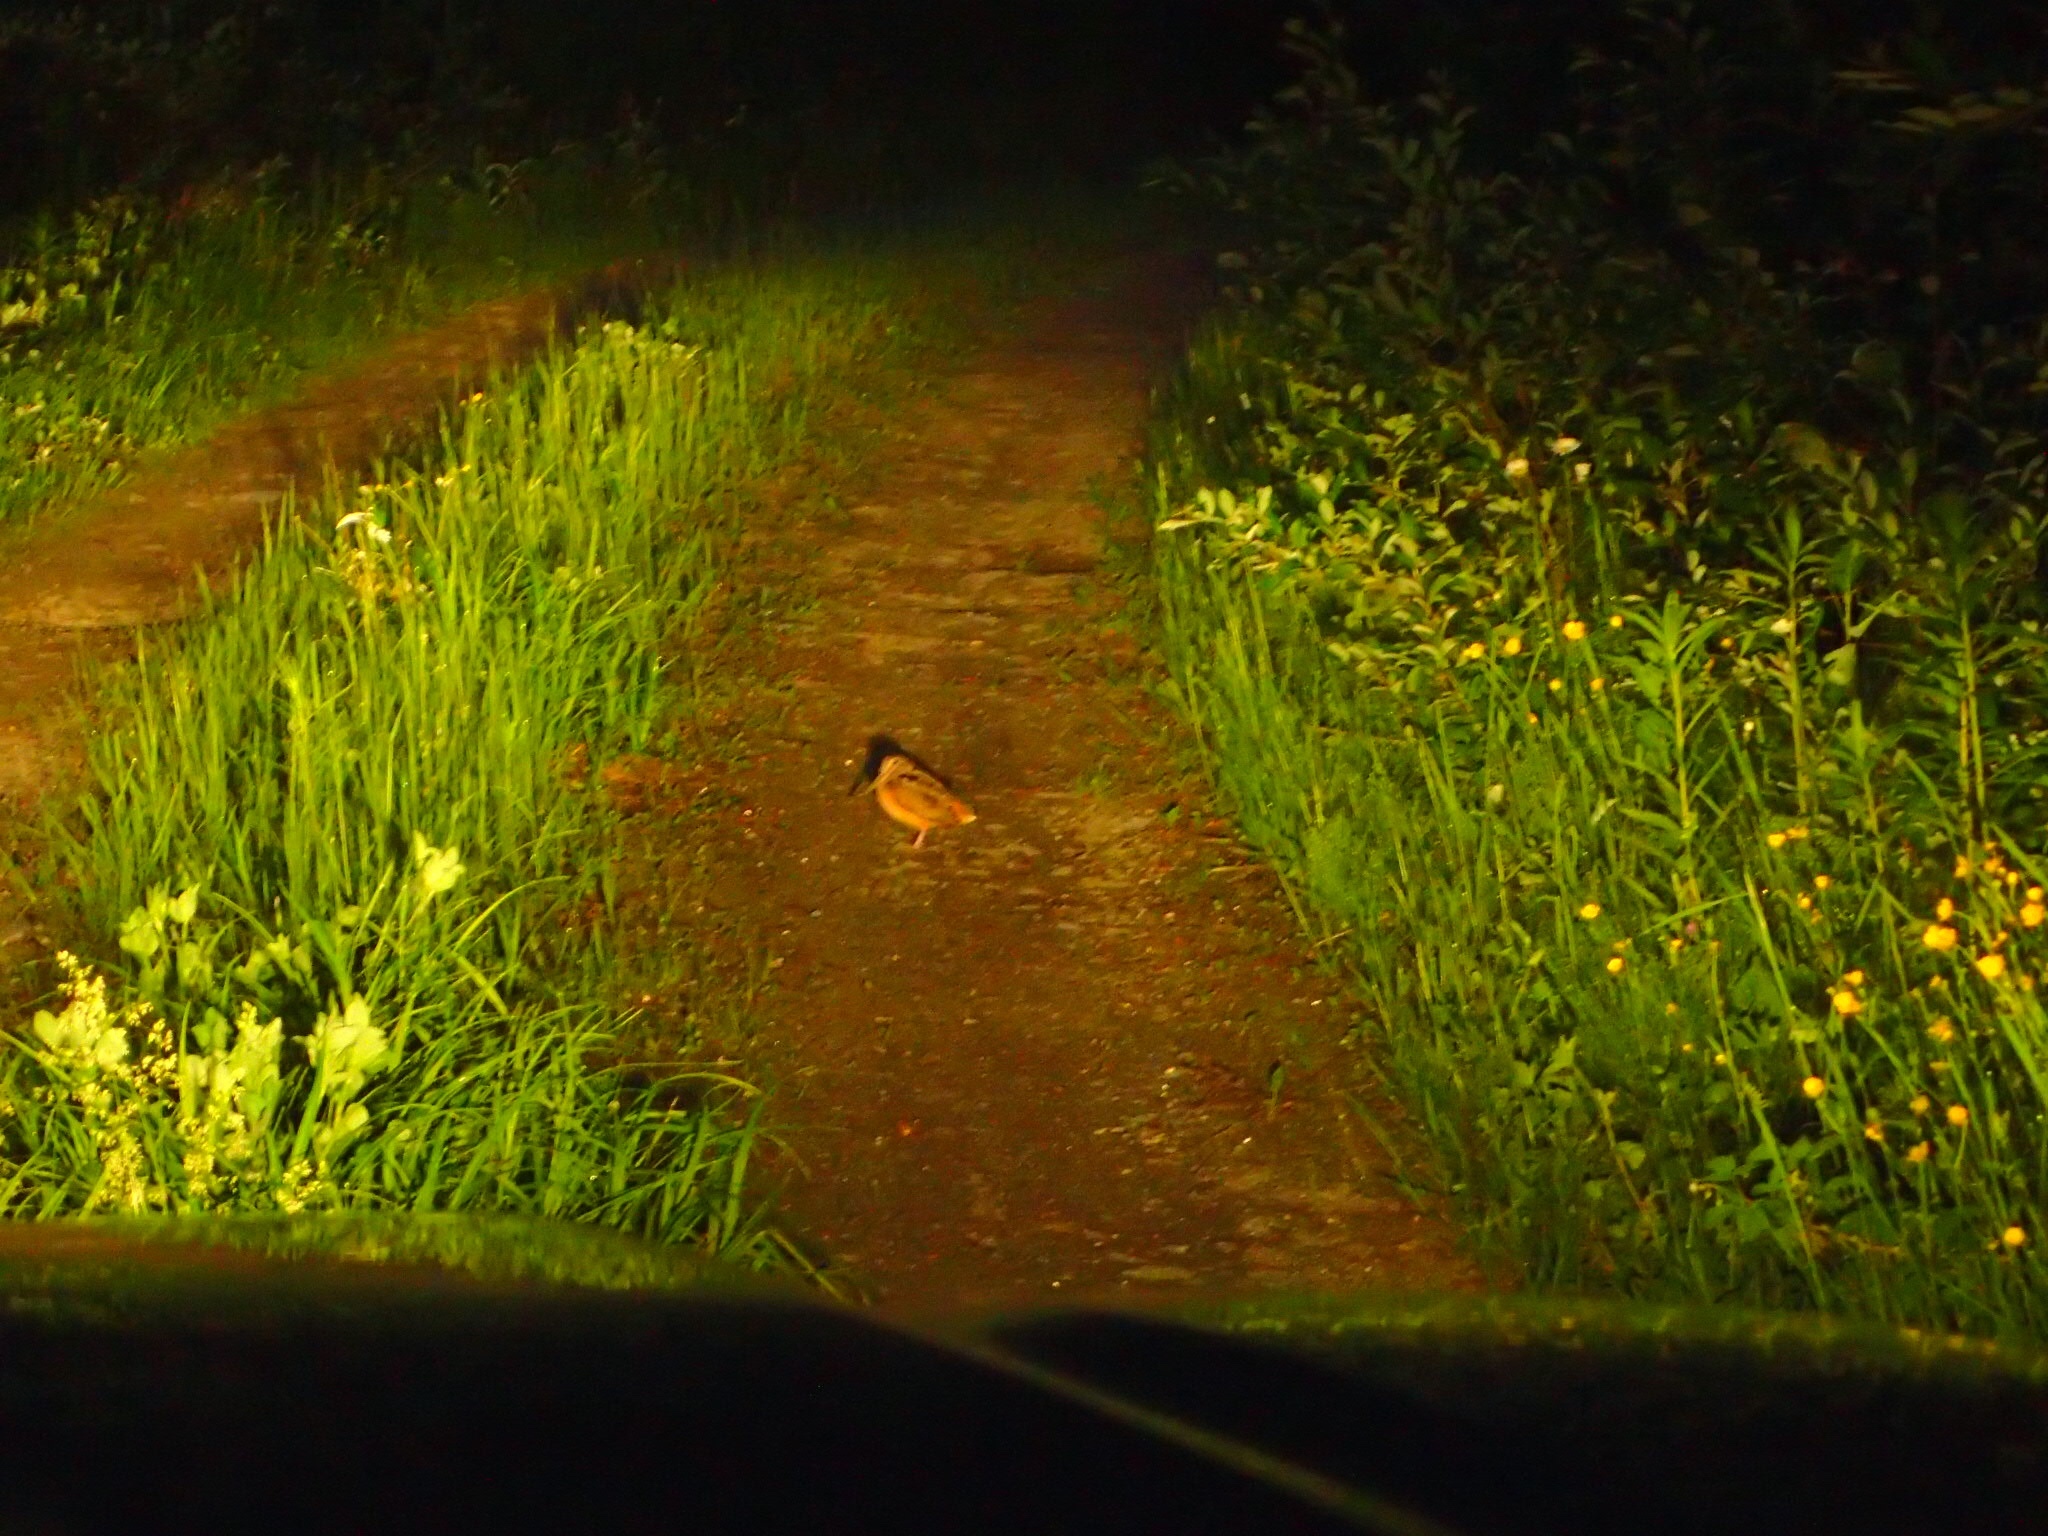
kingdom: Animalia
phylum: Chordata
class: Aves
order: Charadriiformes
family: Scolopacidae
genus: Scolopax
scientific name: Scolopax minor
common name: American woodcock
